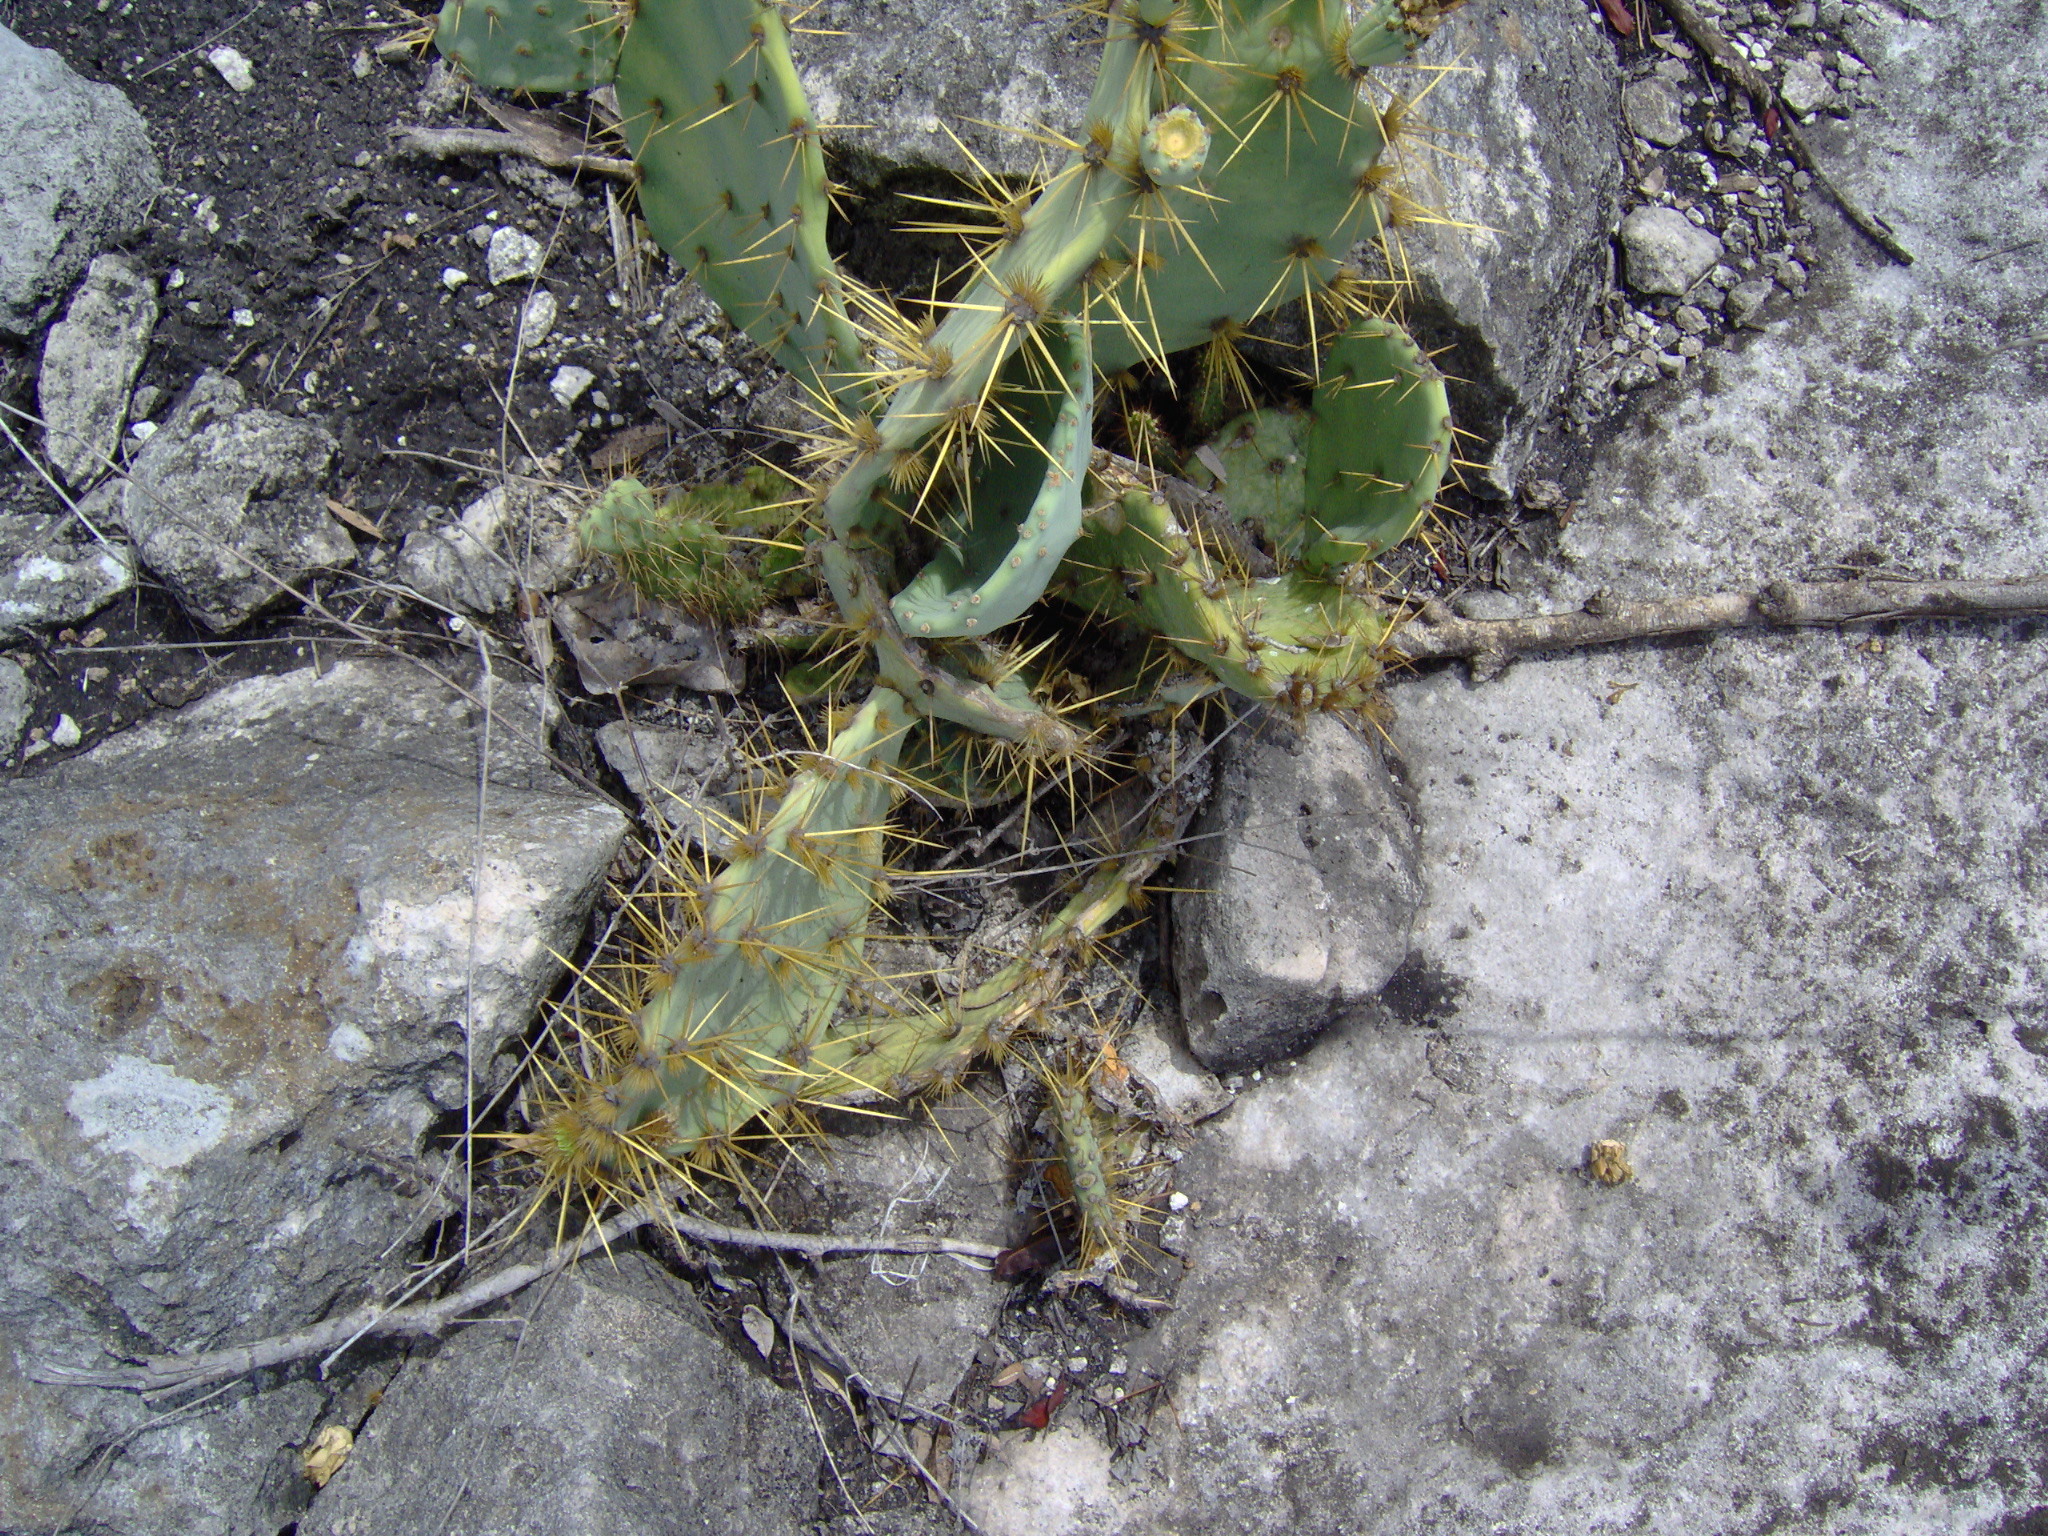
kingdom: Plantae
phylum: Tracheophyta
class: Magnoliopsida
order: Caryophyllales
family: Cactaceae
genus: Opuntia
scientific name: Opuntia stricta
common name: Erect pricklypear
